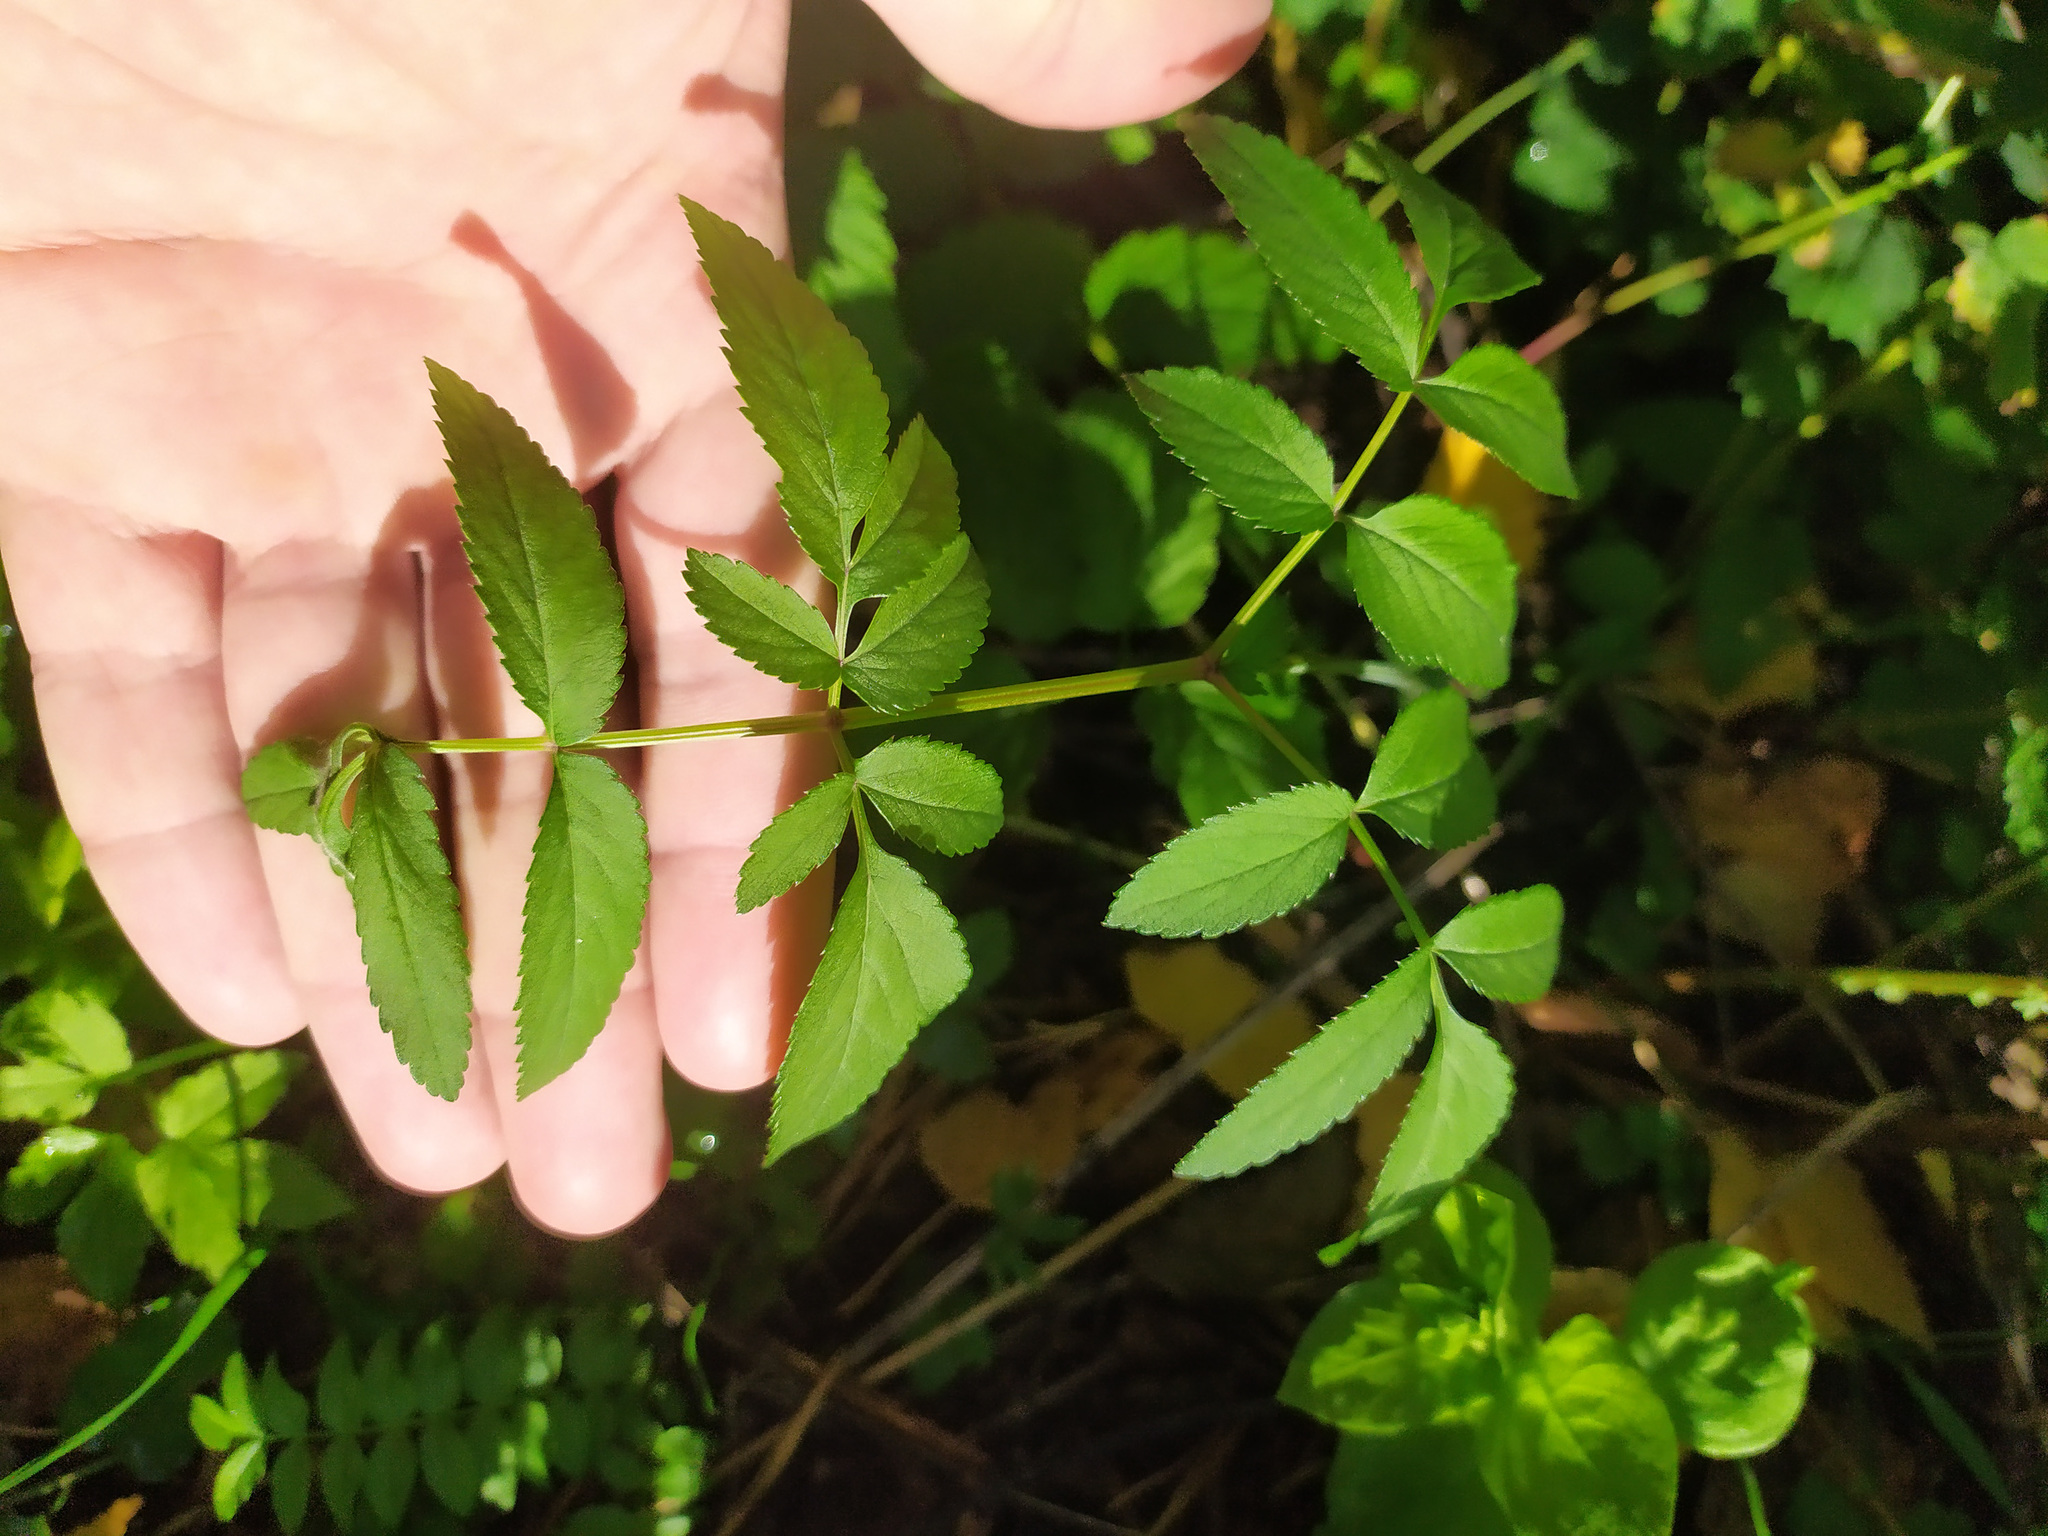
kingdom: Plantae
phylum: Tracheophyta
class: Magnoliopsida
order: Apiales
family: Apiaceae
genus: Angelica
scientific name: Angelica sylvestris
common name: Wild angelica
